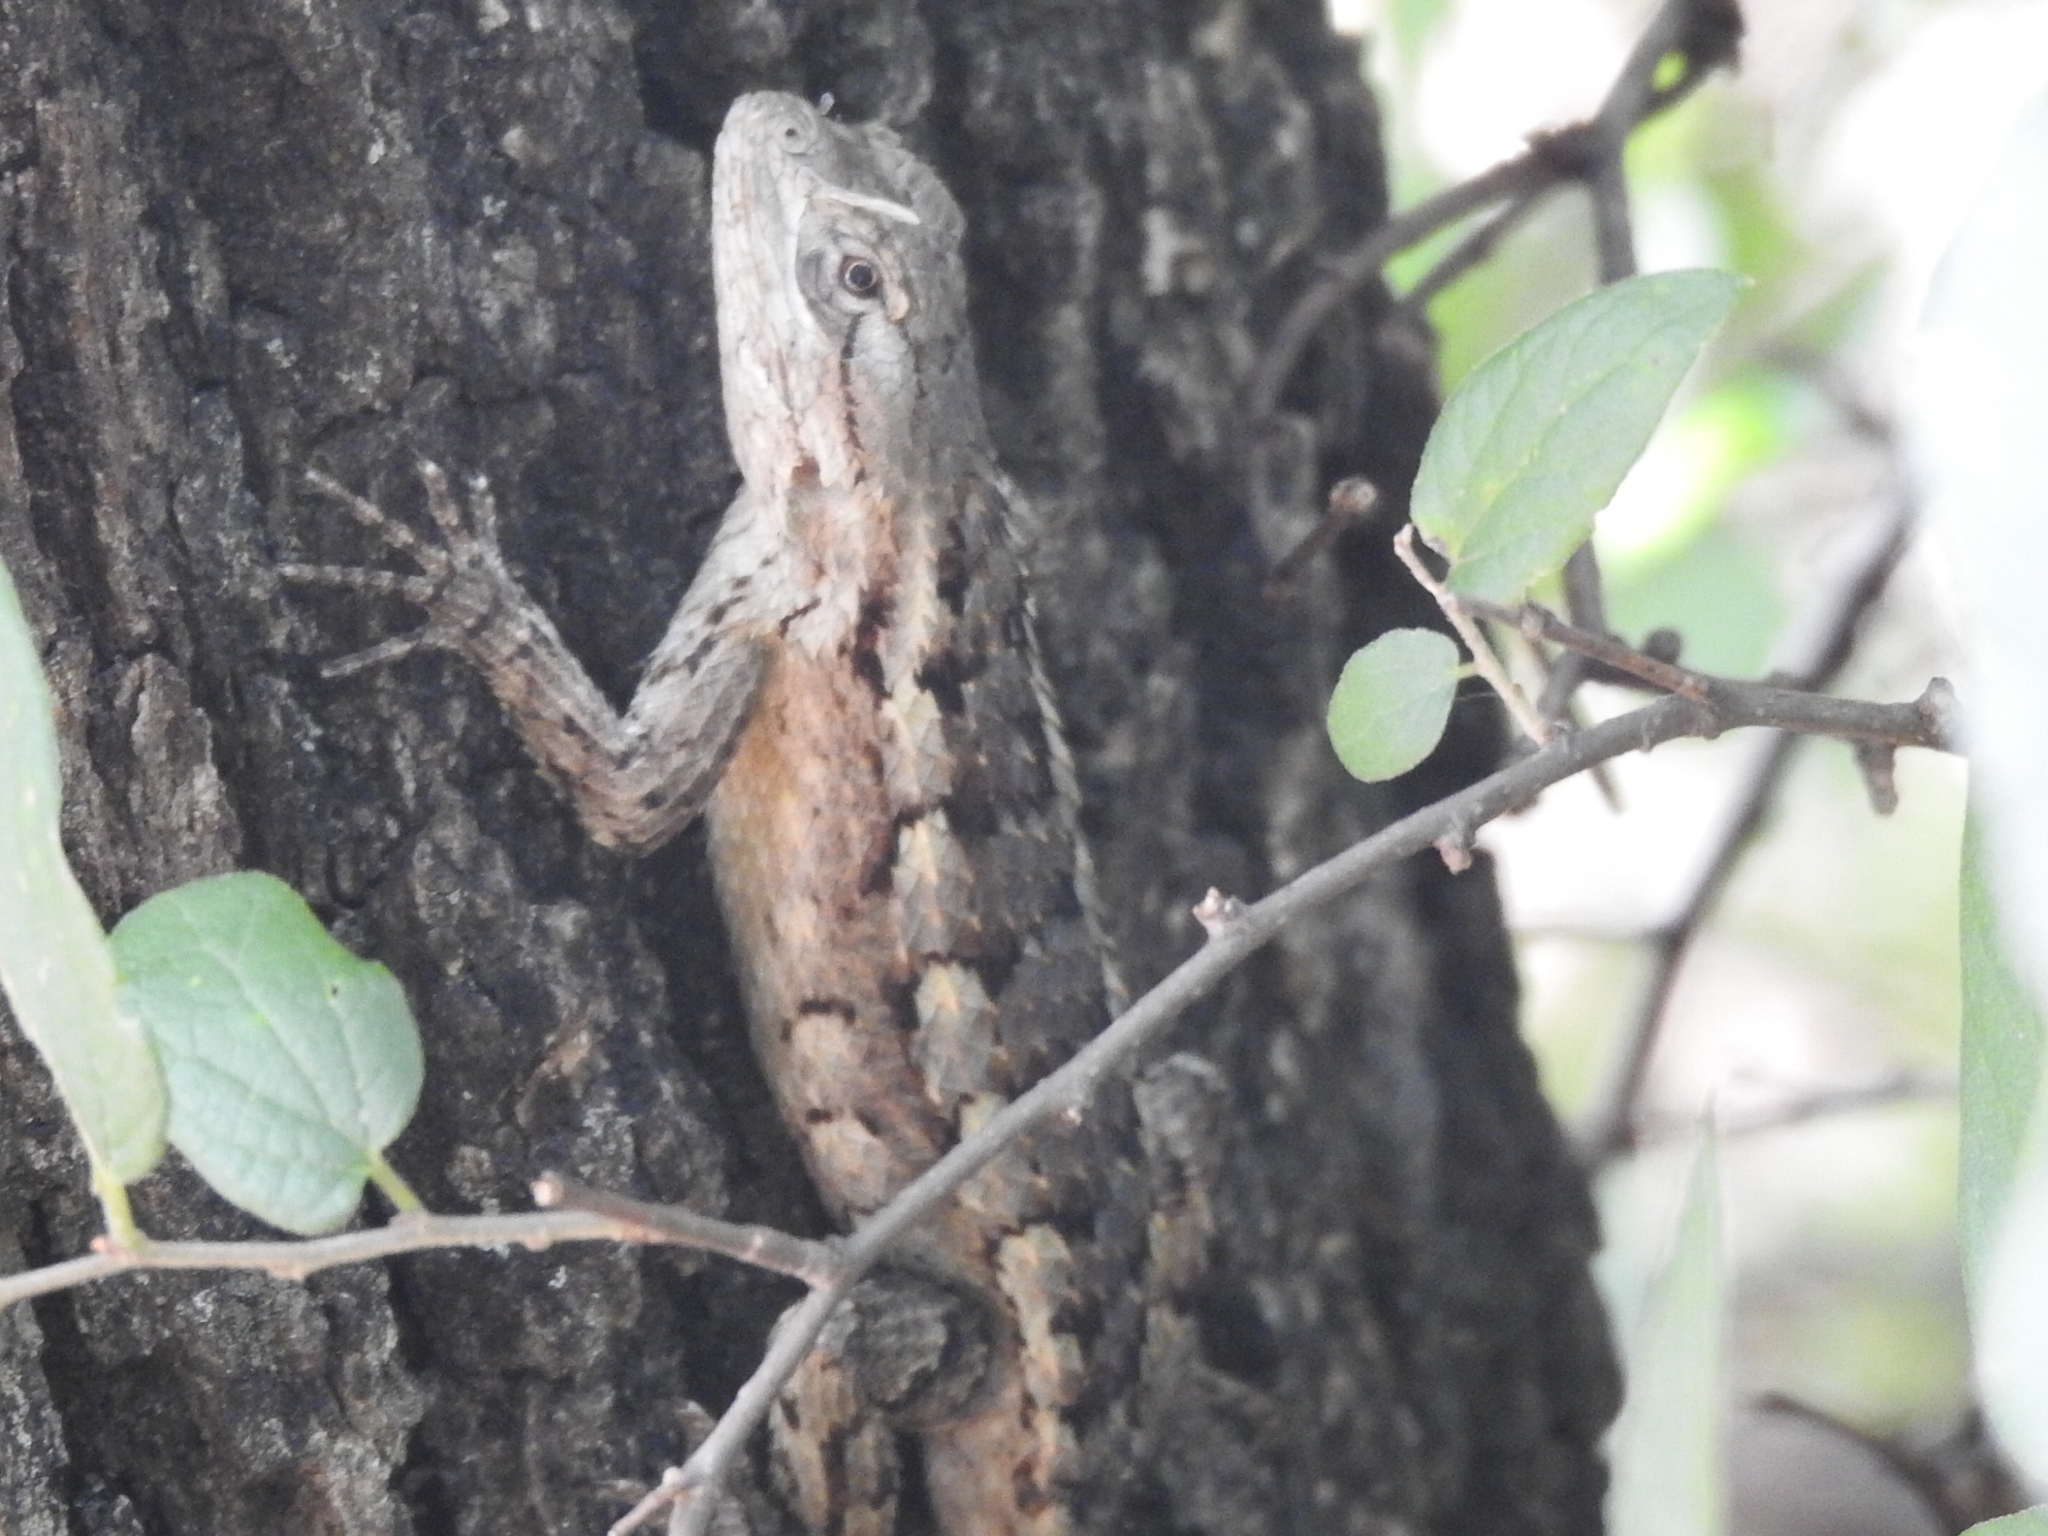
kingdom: Animalia
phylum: Chordata
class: Squamata
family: Phrynosomatidae
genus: Sceloporus
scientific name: Sceloporus olivaceus
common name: Texas spiny lizard
